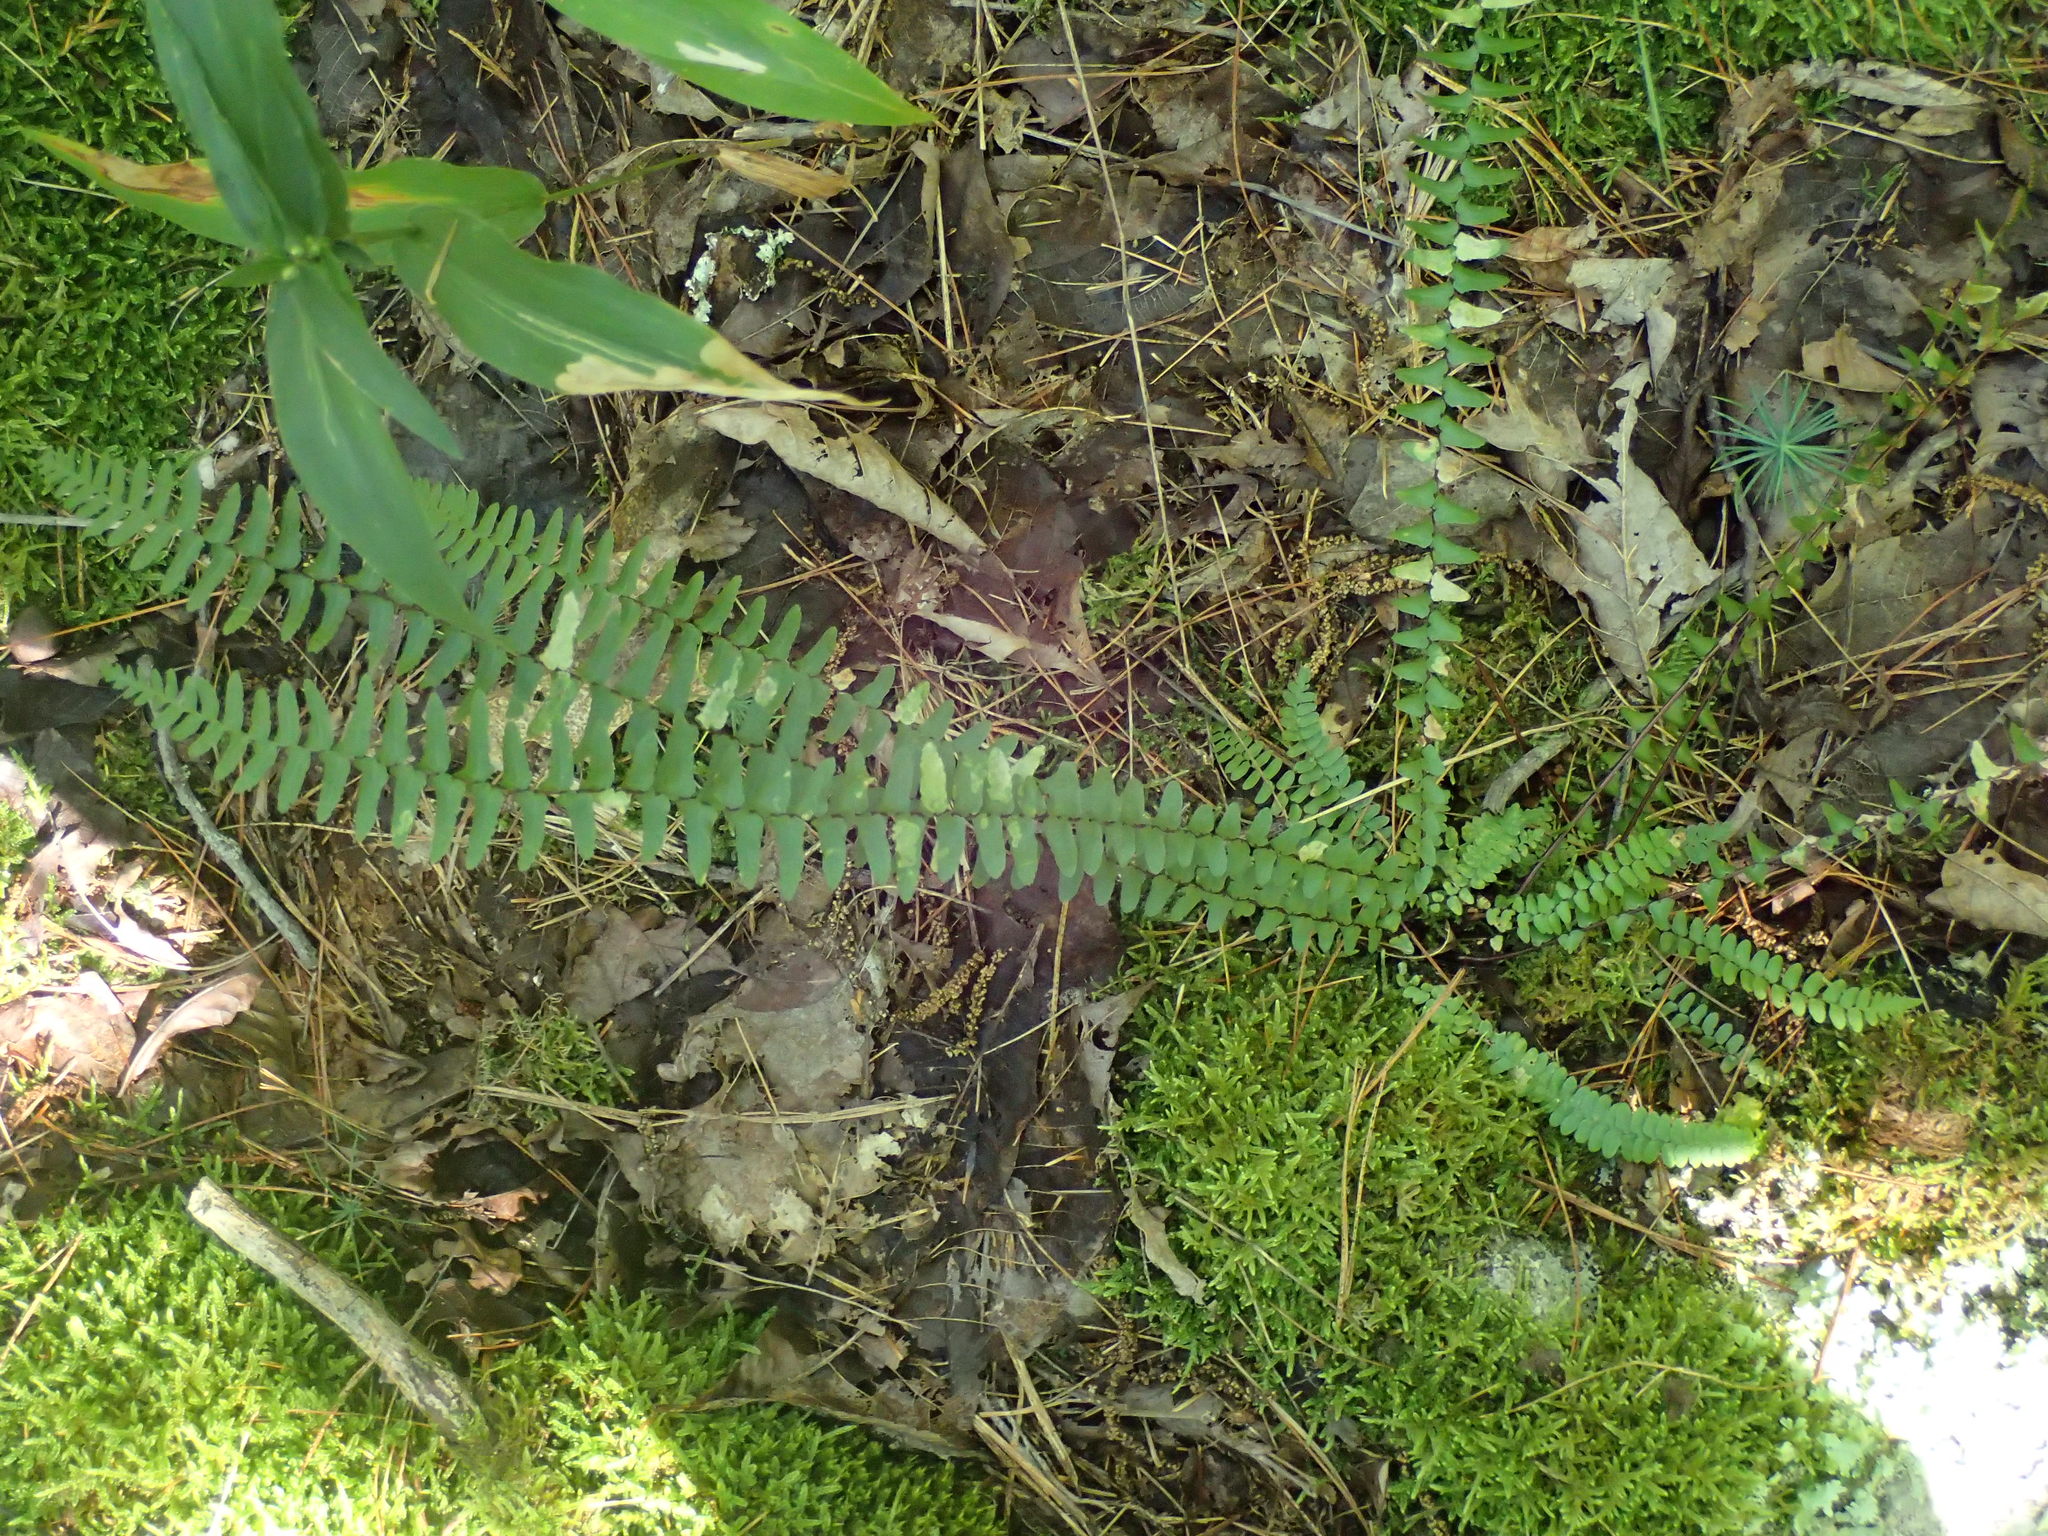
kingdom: Plantae
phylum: Tracheophyta
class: Polypodiopsida
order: Polypodiales
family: Aspleniaceae
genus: Asplenium
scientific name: Asplenium platyneuron
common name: Ebony spleenwort
